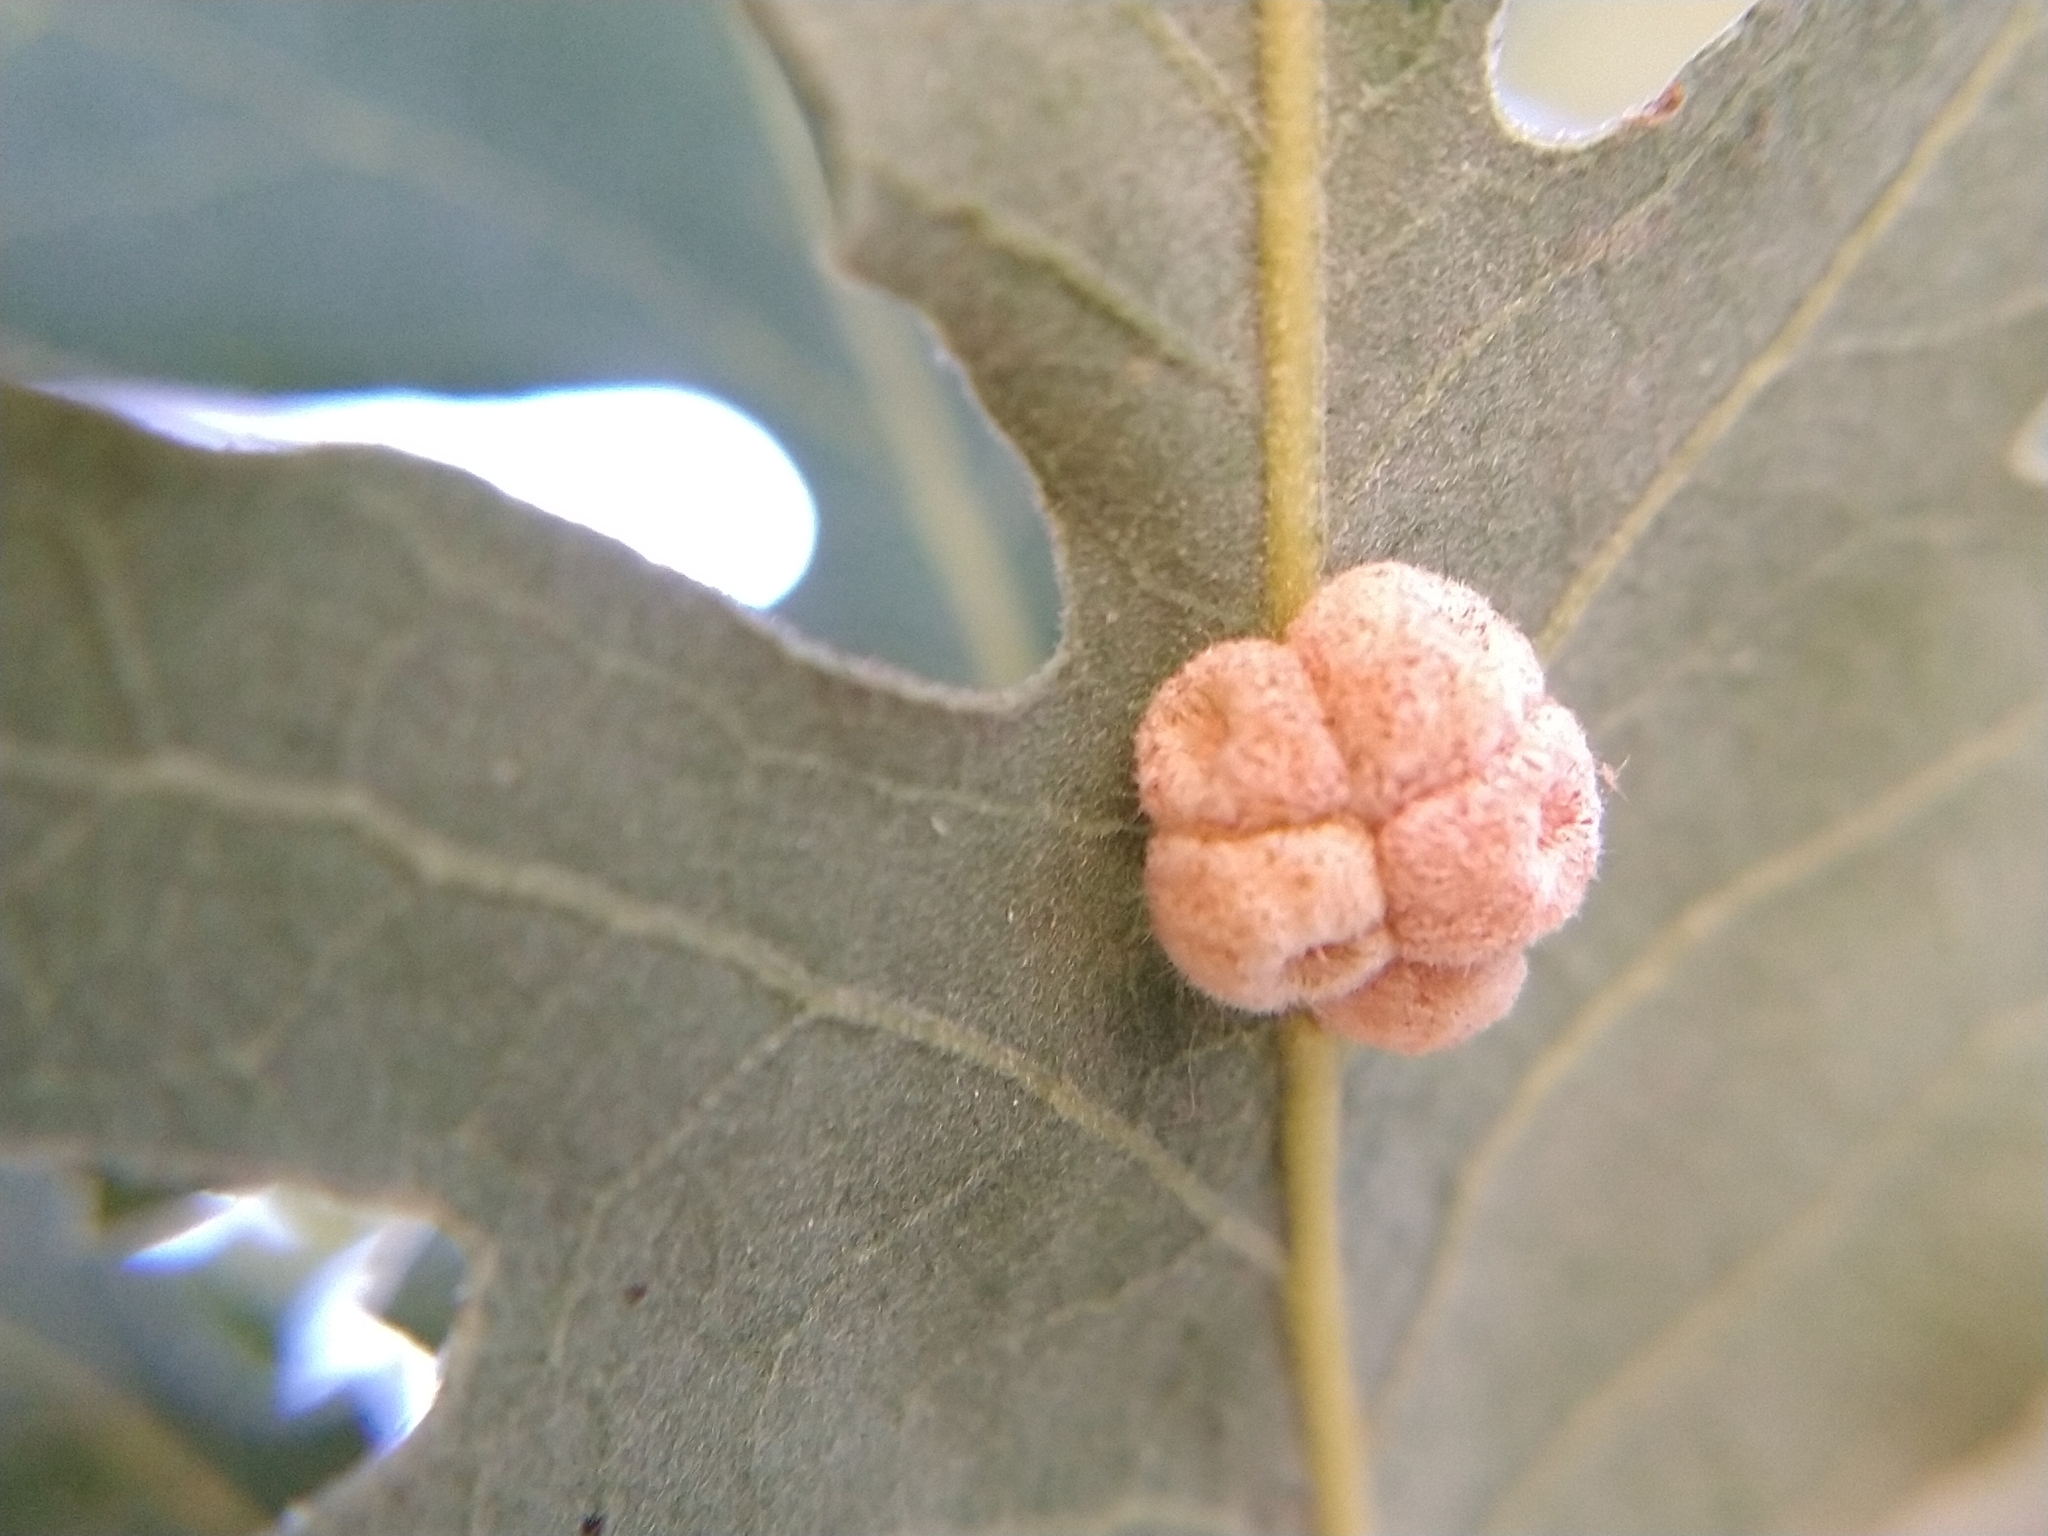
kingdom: Animalia
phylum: Arthropoda
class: Insecta
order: Hymenoptera
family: Cynipidae
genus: Andricus
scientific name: Andricus
